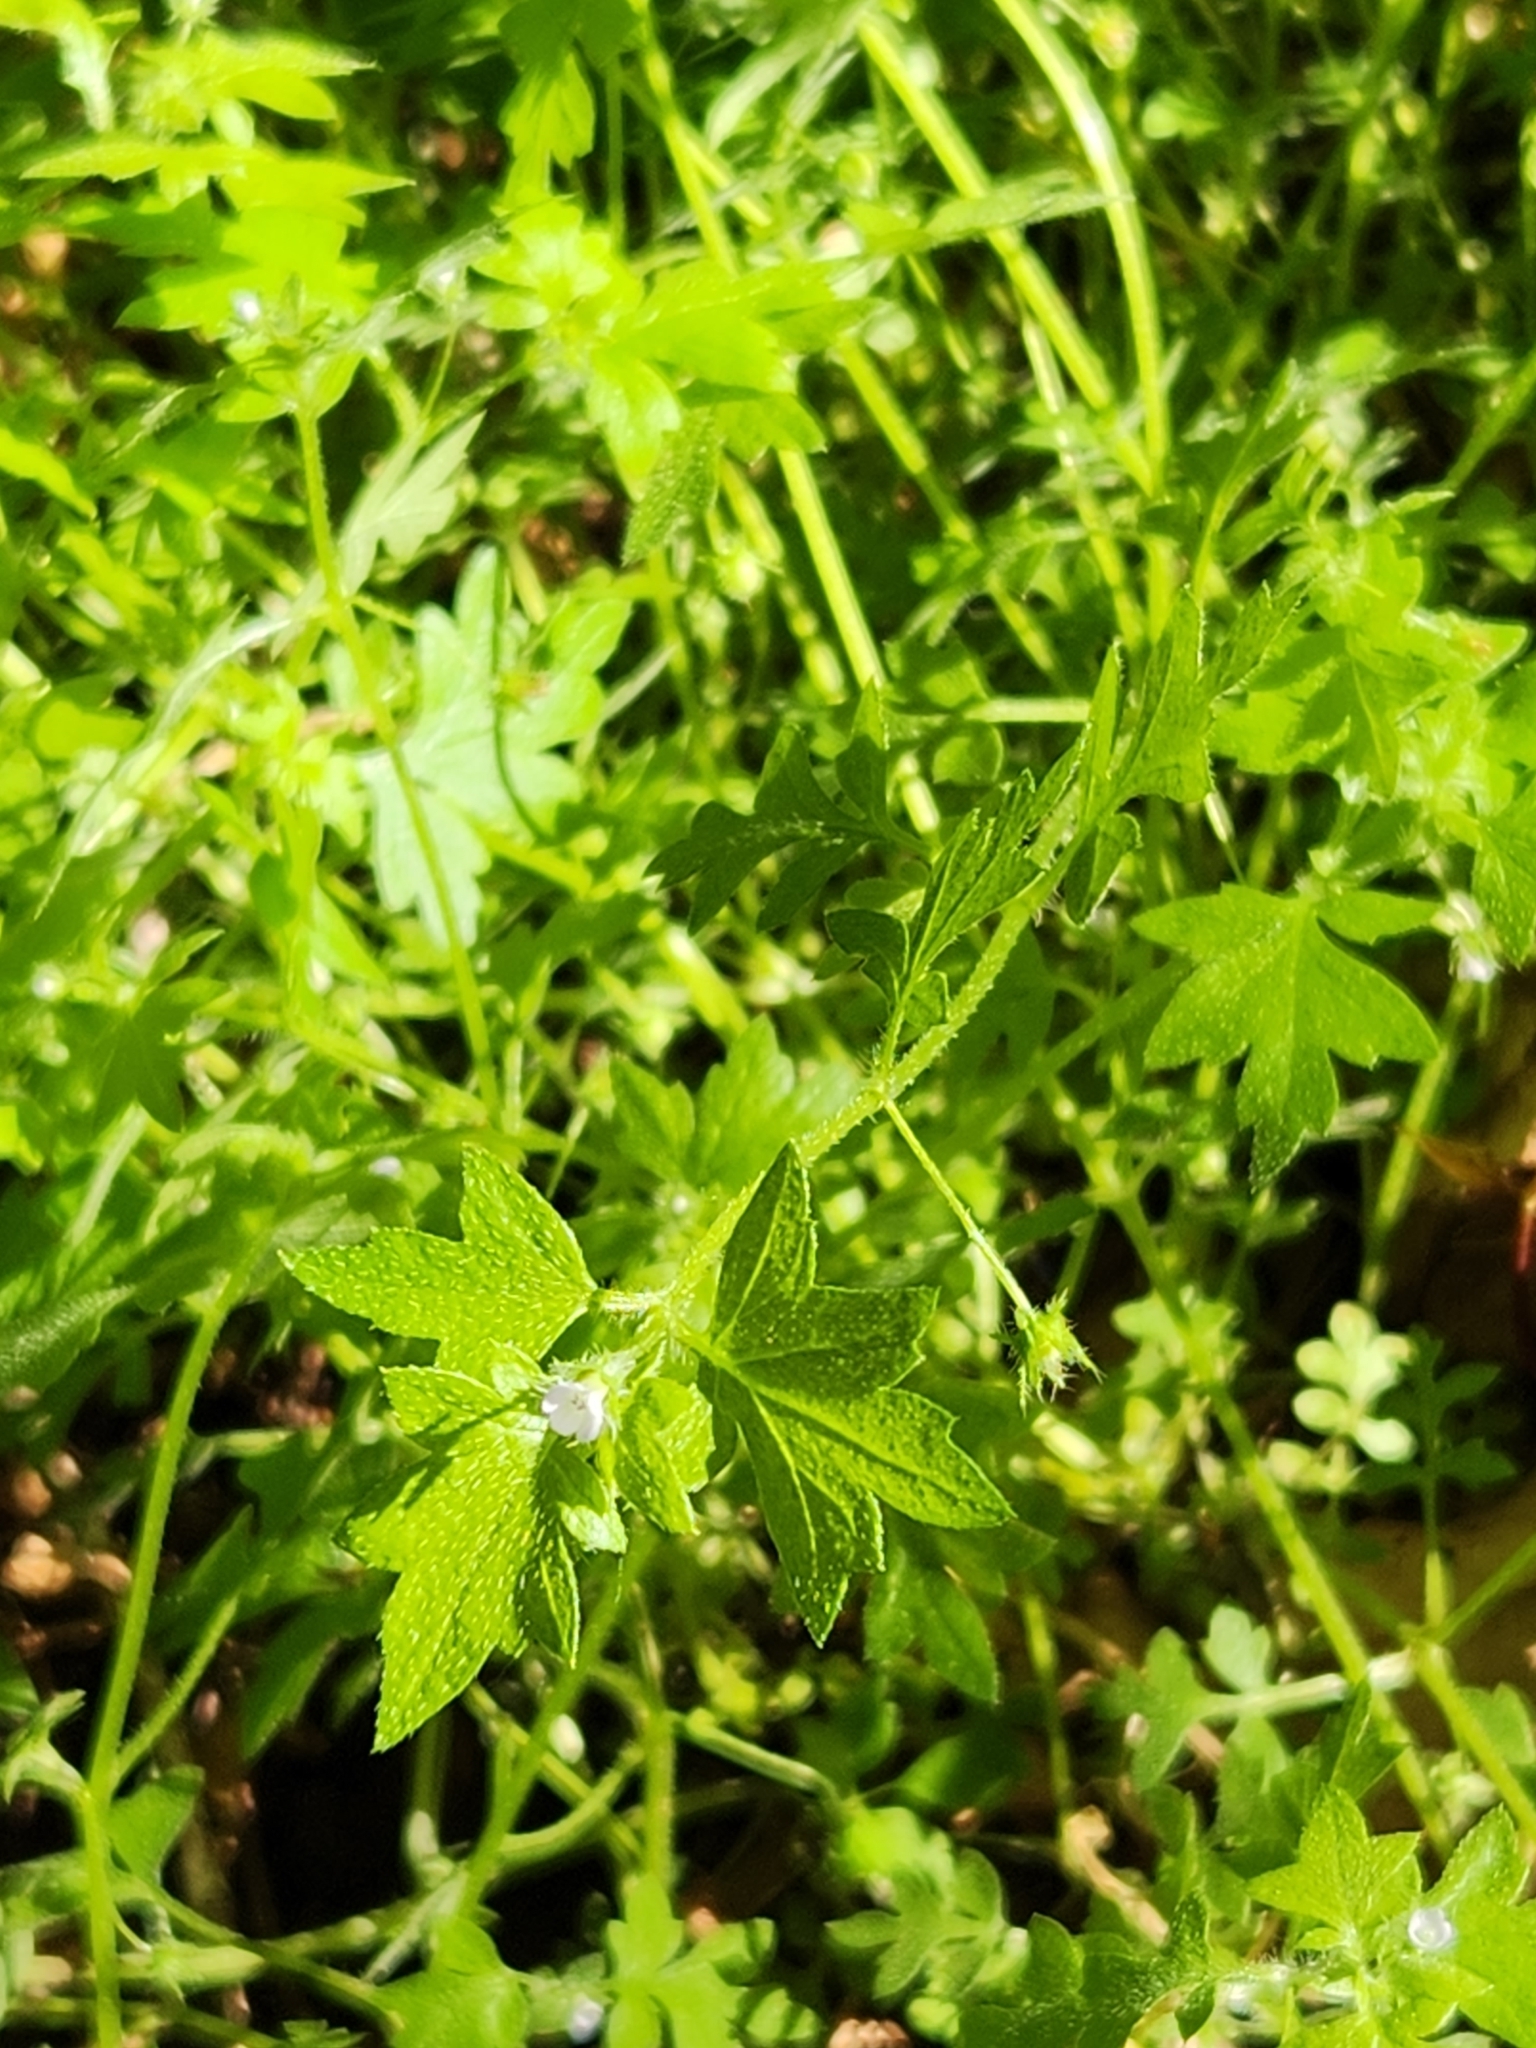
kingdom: Plantae
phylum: Tracheophyta
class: Magnoliopsida
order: Boraginales
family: Hydrophyllaceae
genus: Nemophila
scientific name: Nemophila parviflora
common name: Small-flowered baby-blue-eyes
